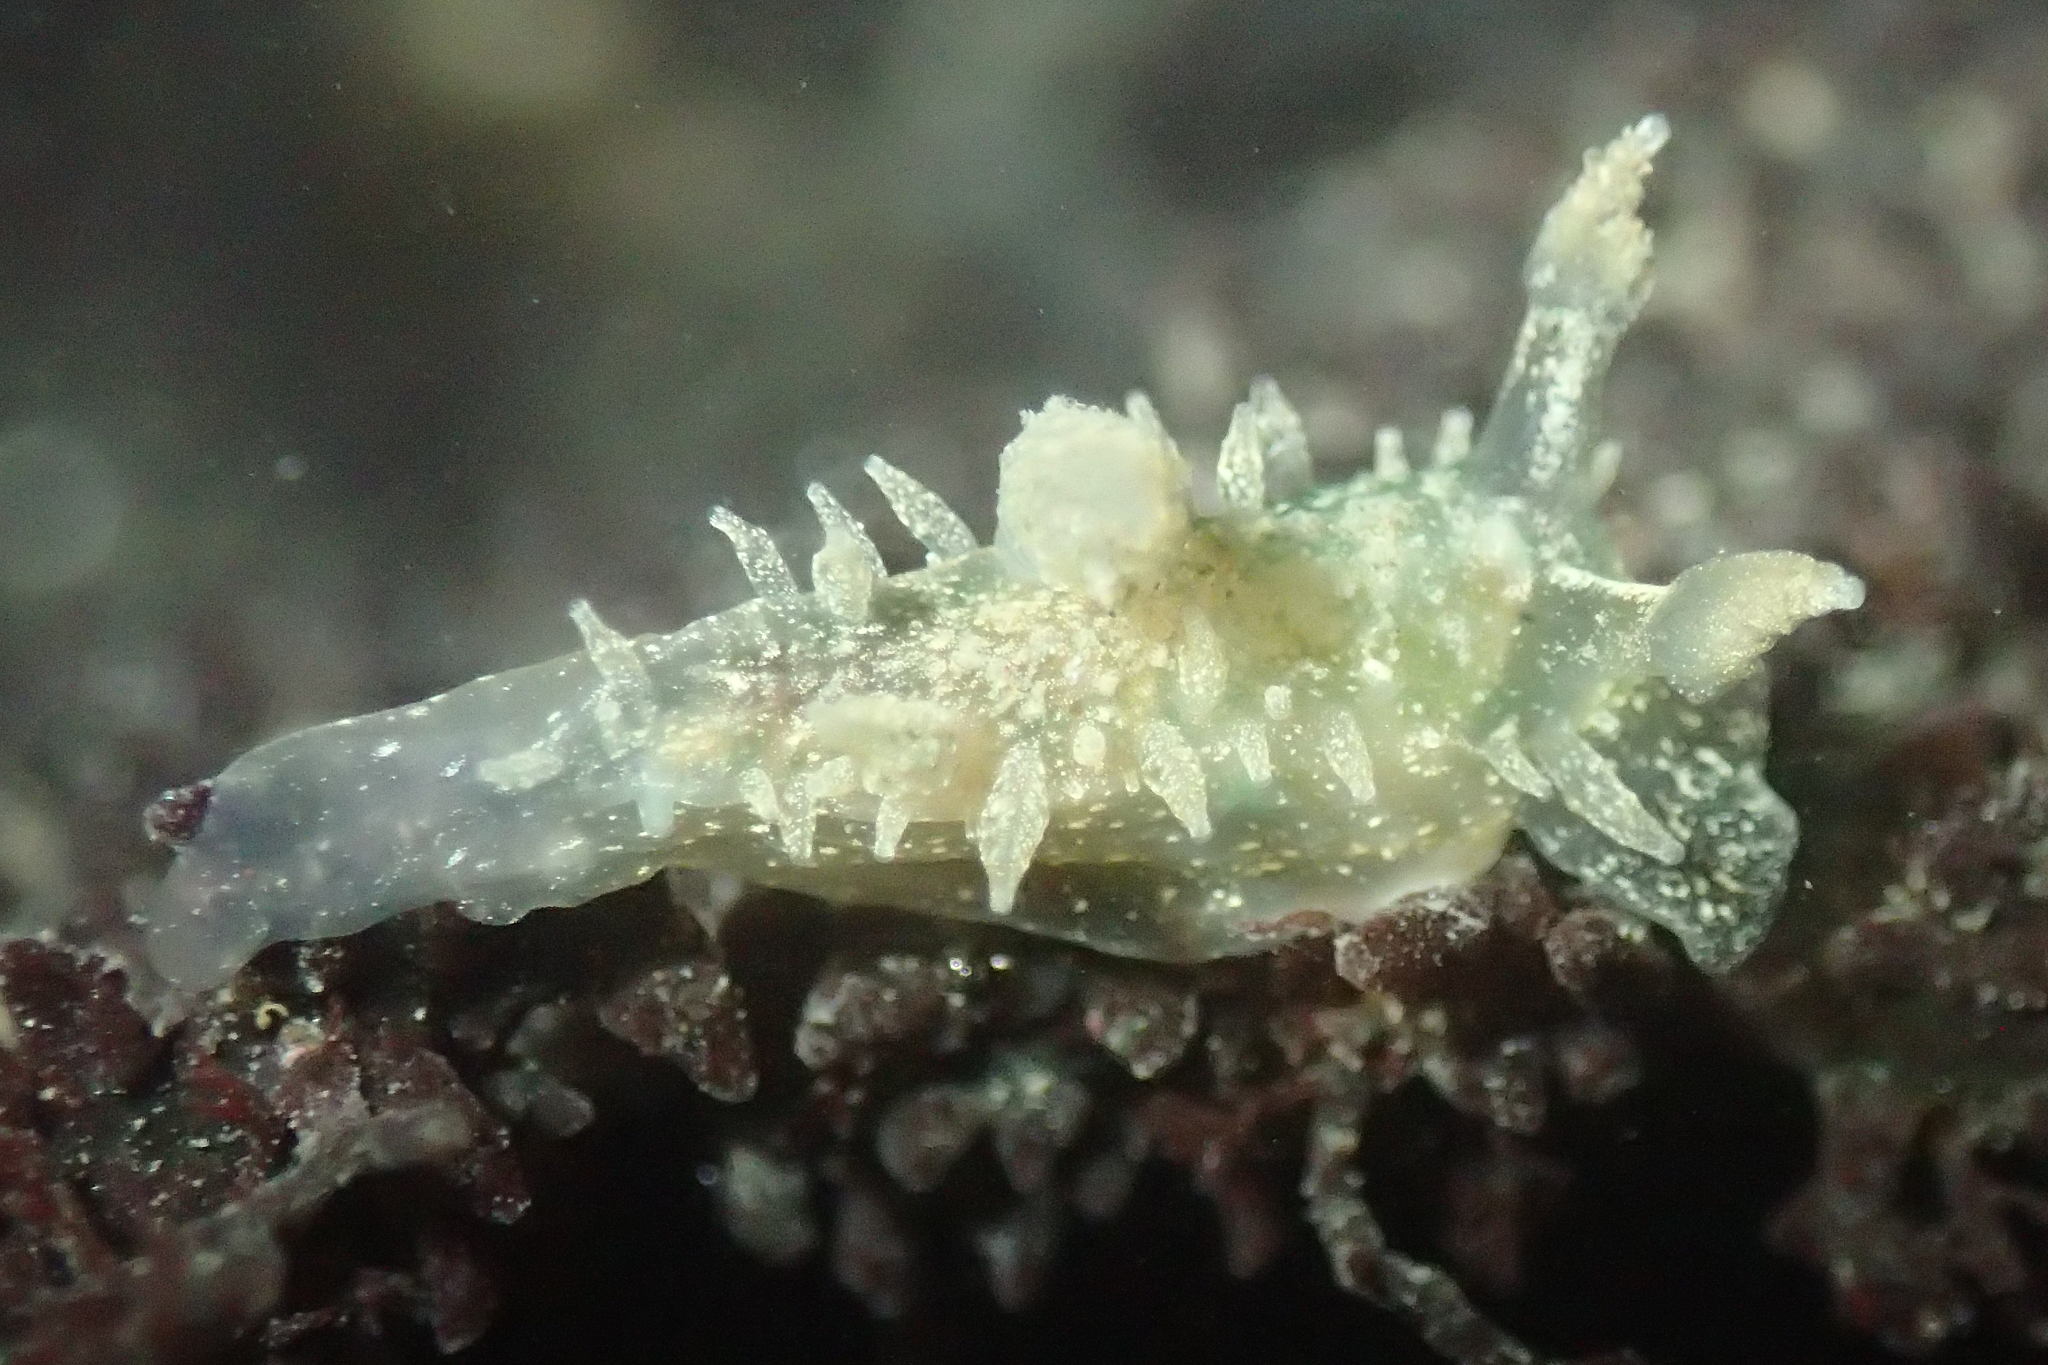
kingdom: Animalia
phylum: Mollusca
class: Gastropoda
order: Nudibranchia
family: Dironidae
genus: Dirona
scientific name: Dirona picta
